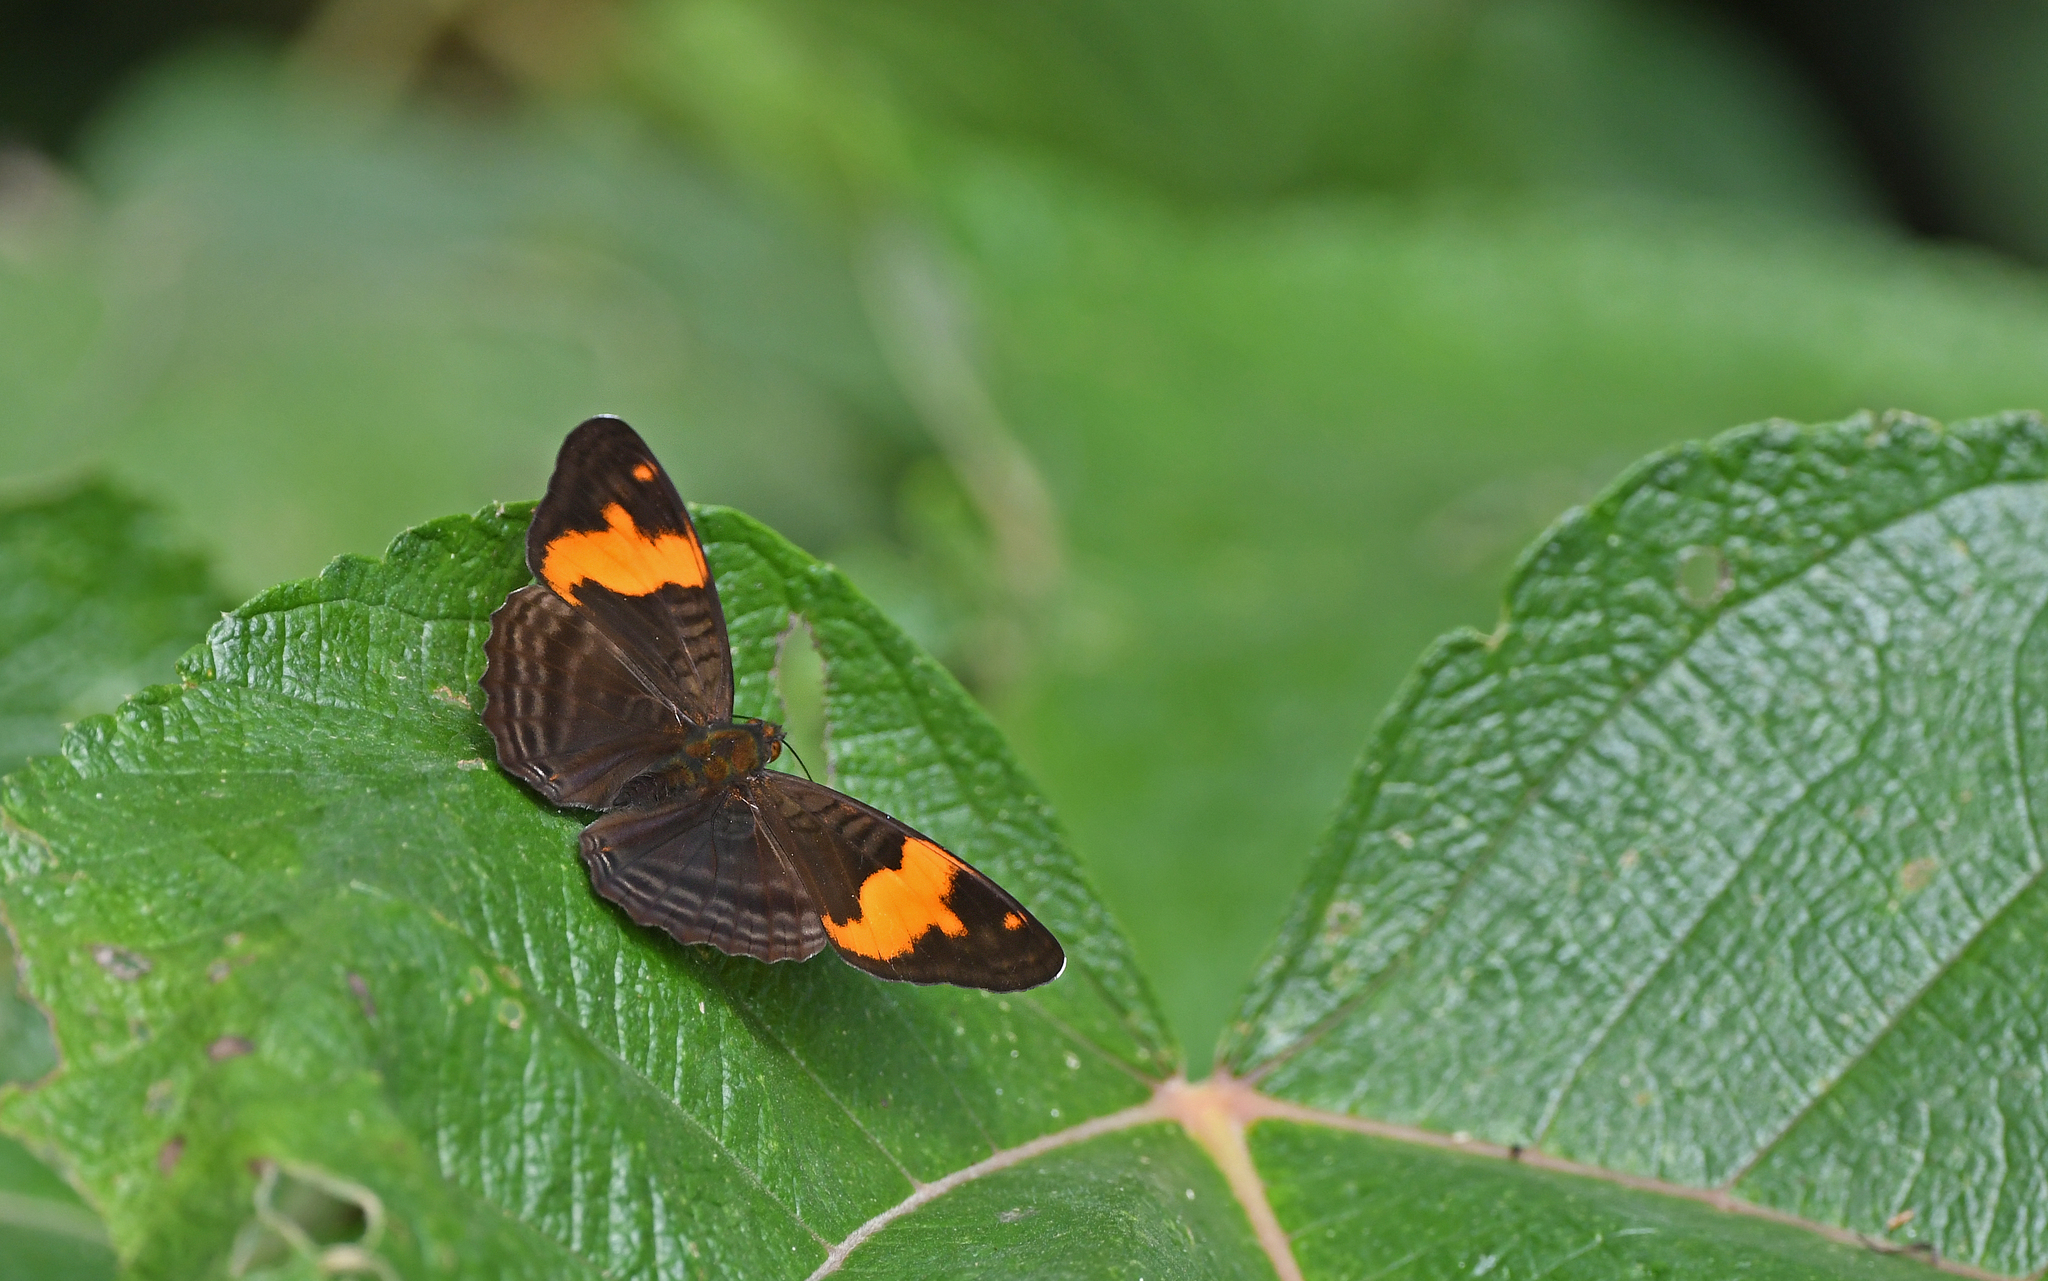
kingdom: Animalia
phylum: Arthropoda
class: Insecta
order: Lepidoptera
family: Nymphalidae
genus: Limenitis
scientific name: Limenitis zina
